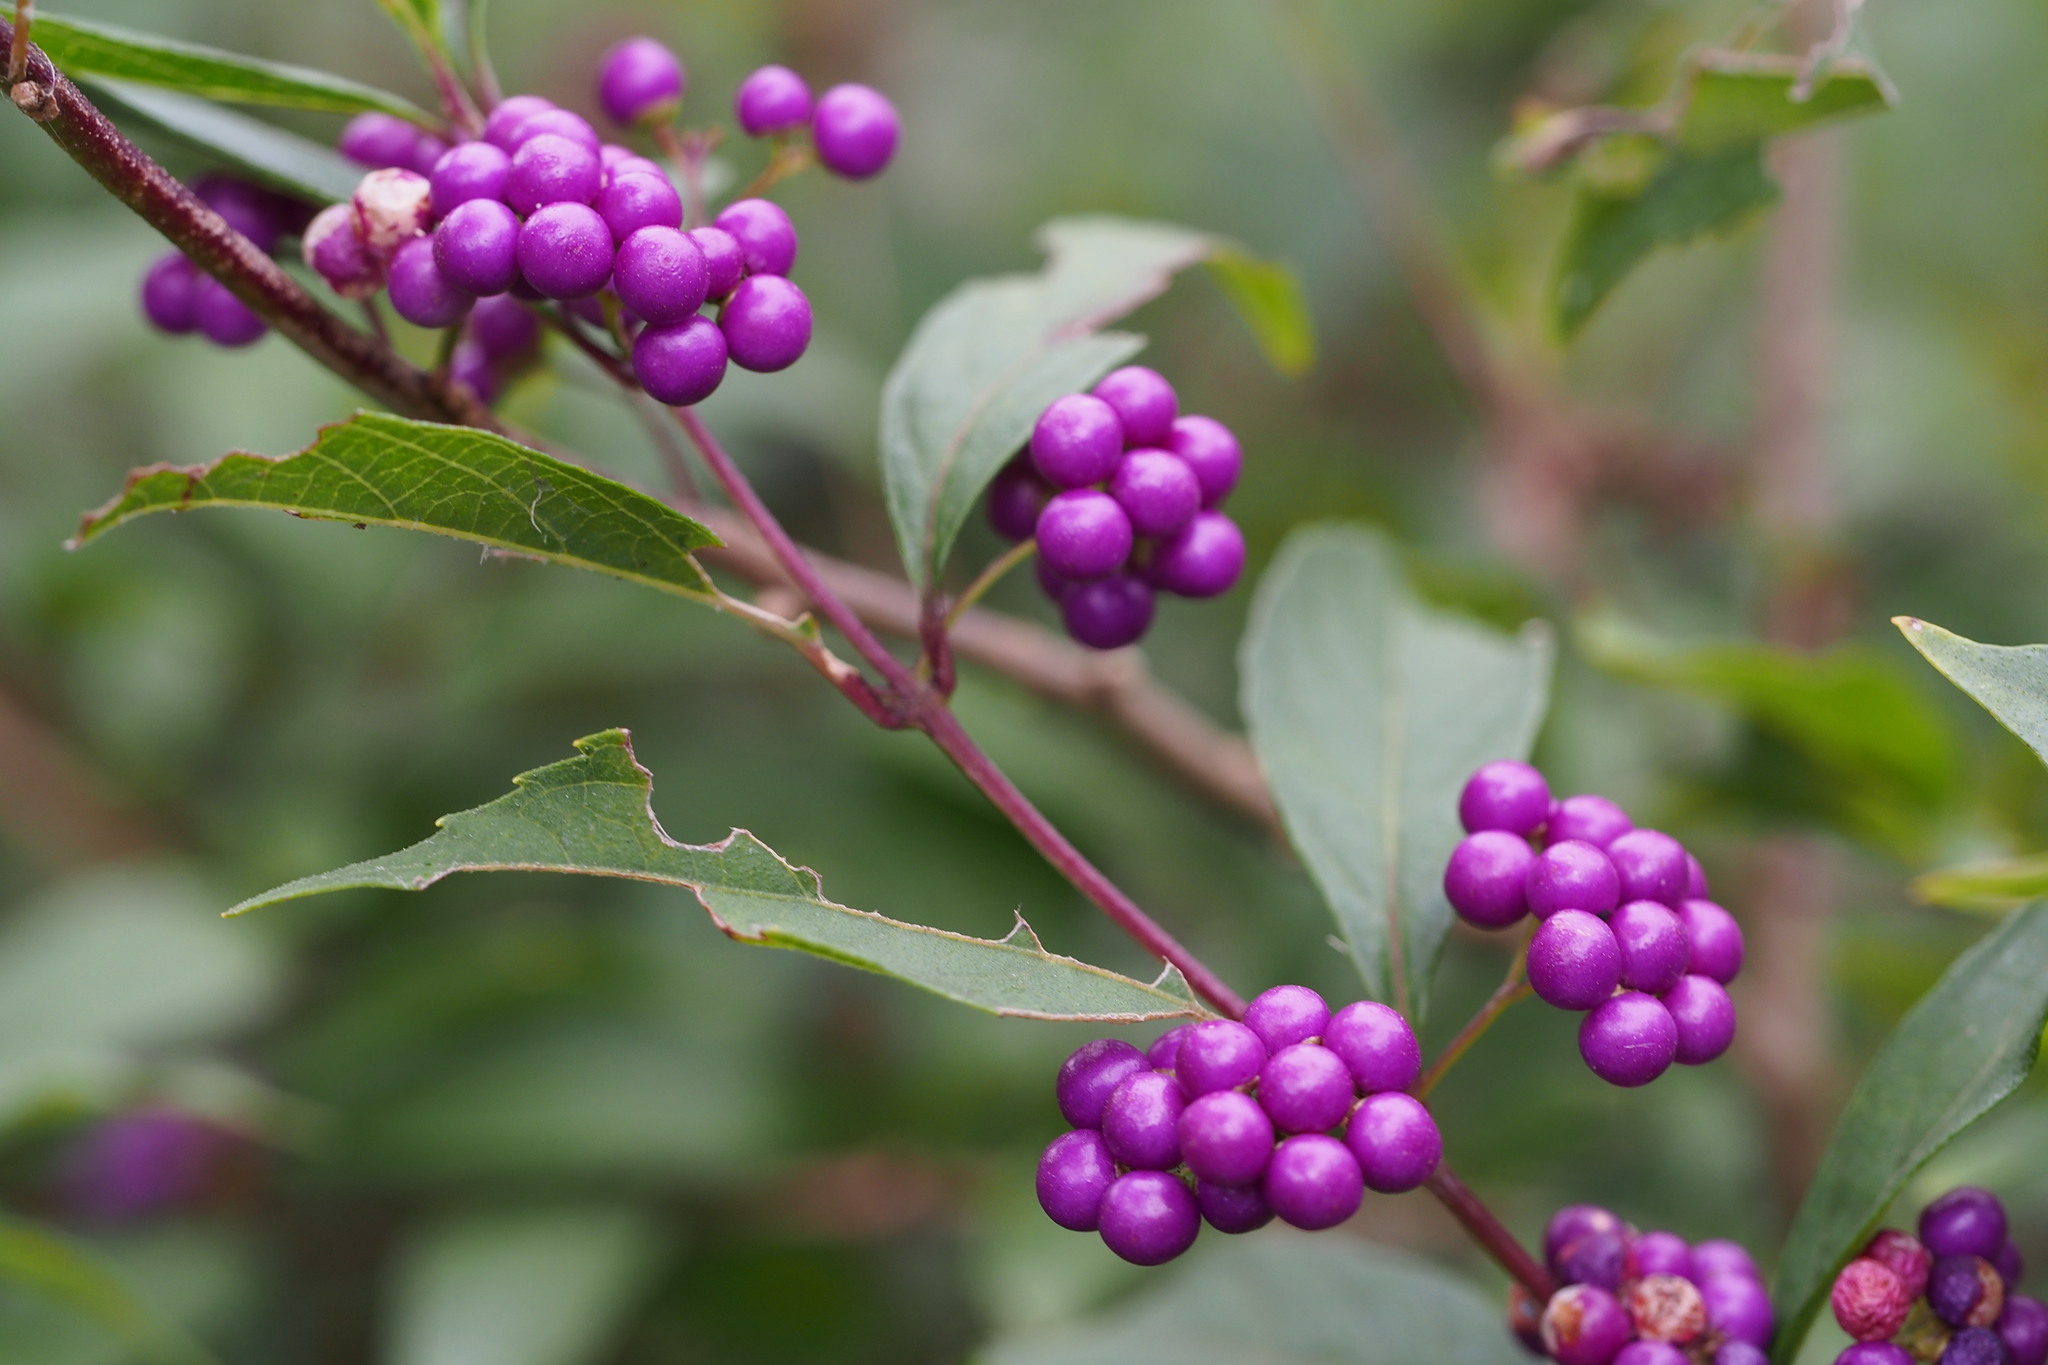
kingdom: Plantae
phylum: Tracheophyta
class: Magnoliopsida
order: Lamiales
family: Lamiaceae
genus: Callicarpa
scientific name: Callicarpa dichotoma
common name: Purple beauty-berry
